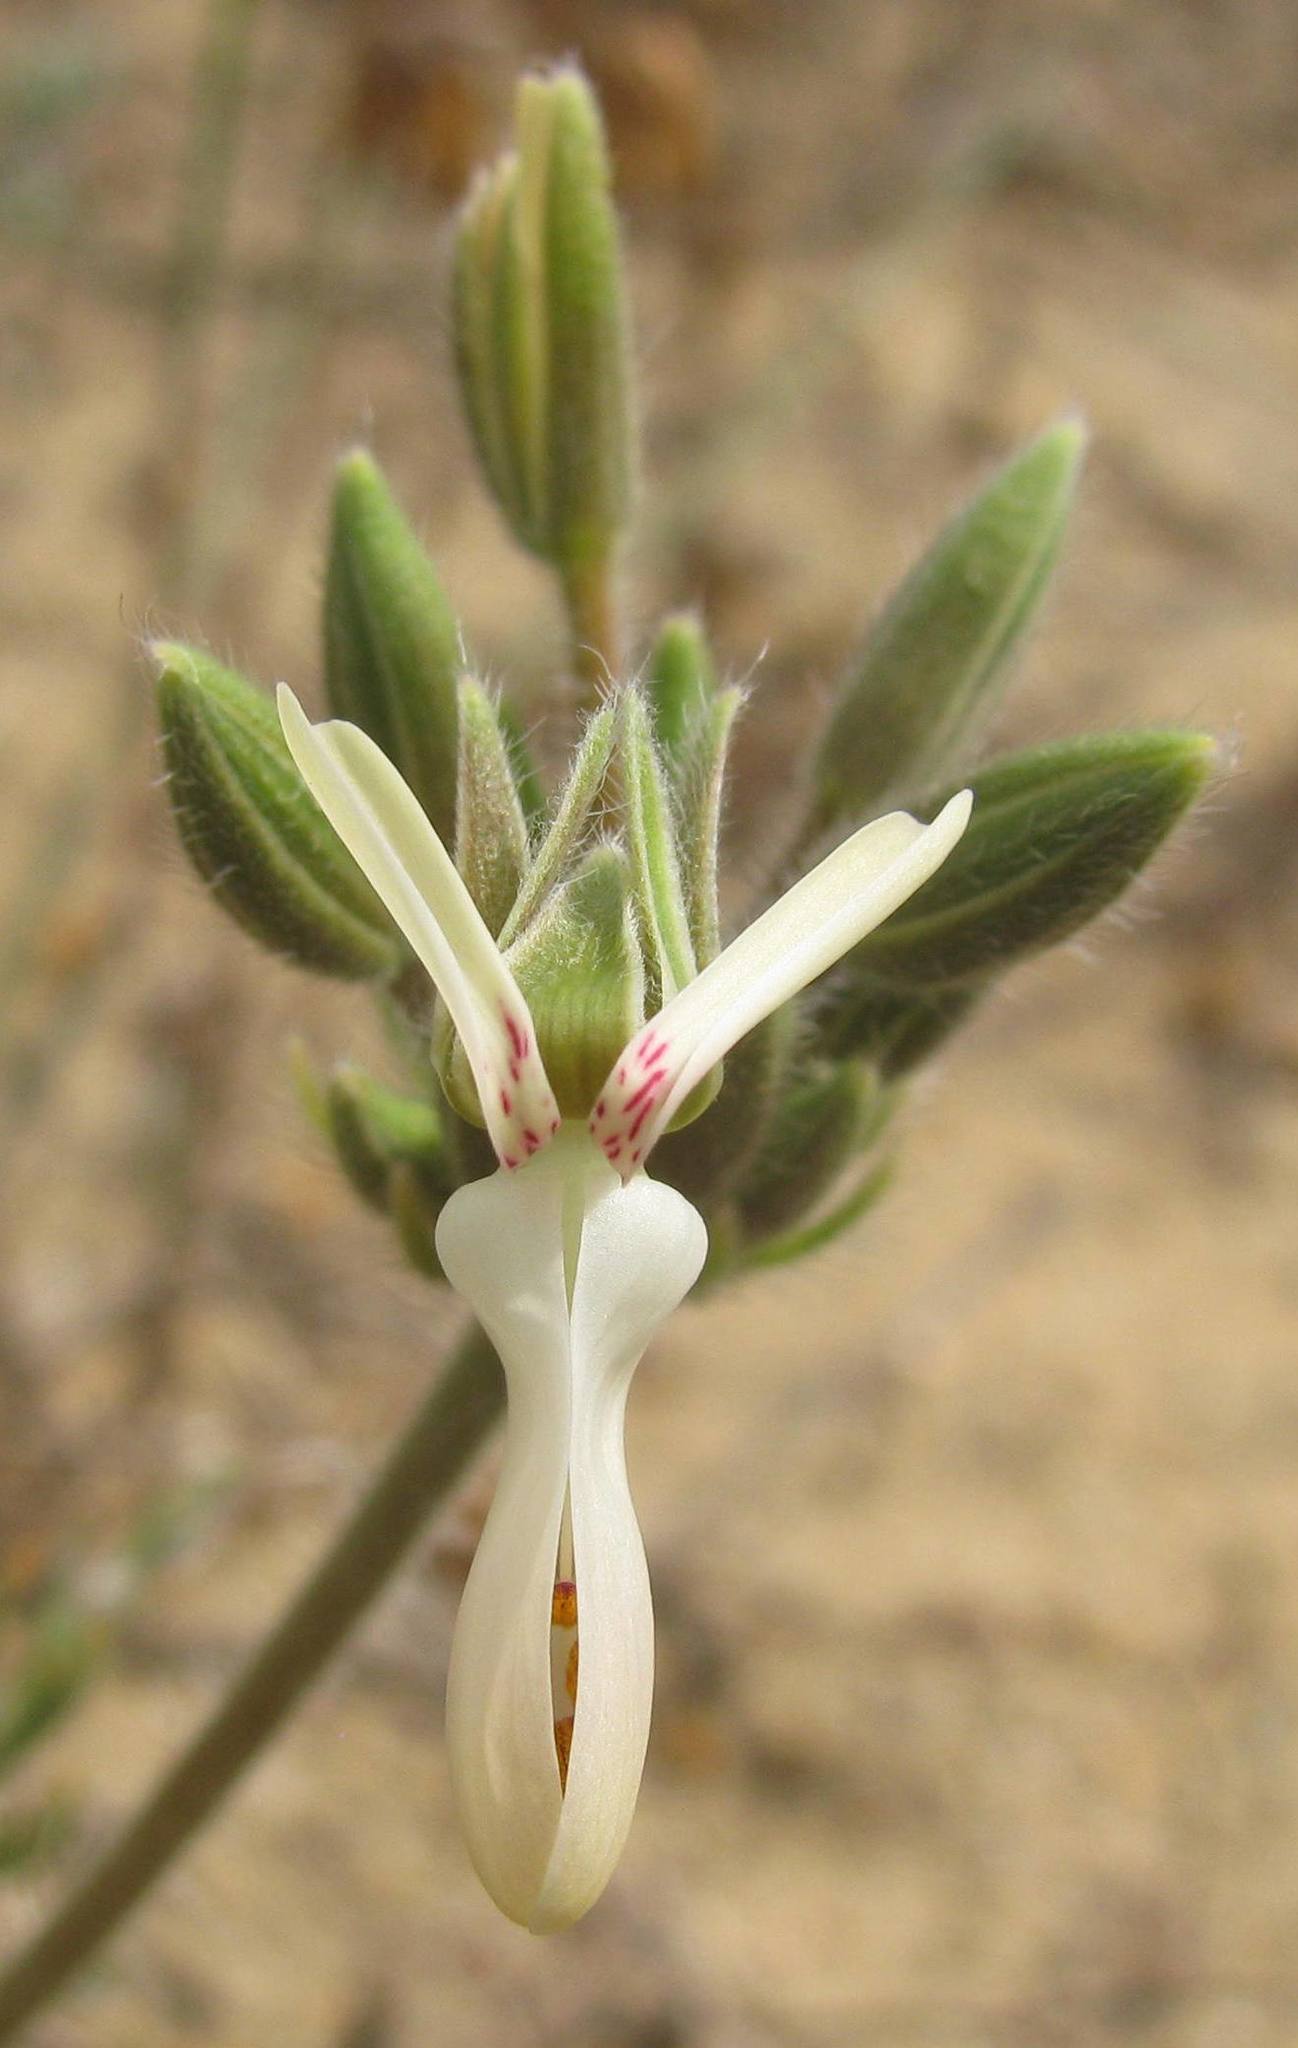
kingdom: Plantae
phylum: Tracheophyta
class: Magnoliopsida
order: Geraniales
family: Geraniaceae
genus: Pelargonium
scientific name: Pelargonium rapaceum
